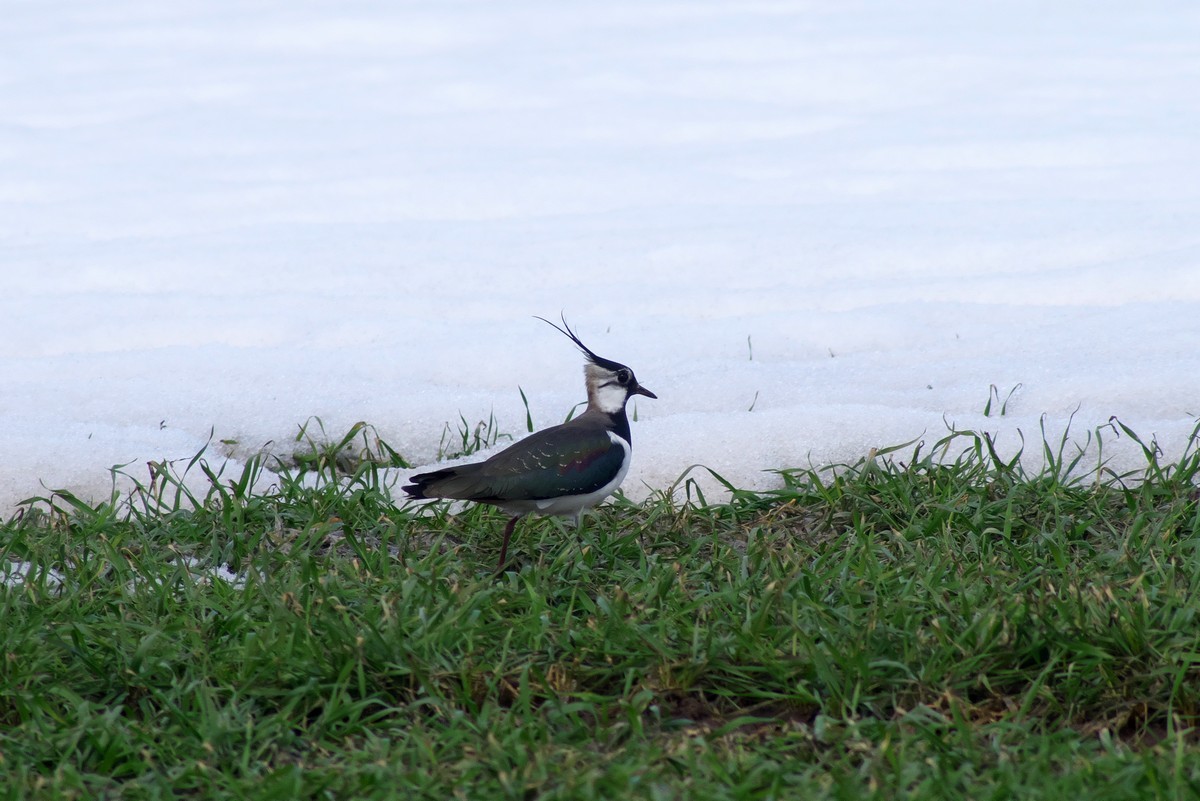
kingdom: Animalia
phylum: Chordata
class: Aves
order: Charadriiformes
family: Charadriidae
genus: Vanellus
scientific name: Vanellus vanellus
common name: Northern lapwing
